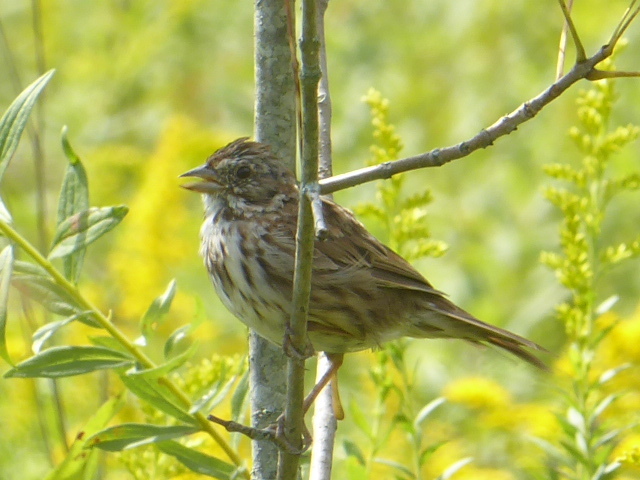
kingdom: Animalia
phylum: Chordata
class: Aves
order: Passeriformes
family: Passerellidae
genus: Melospiza
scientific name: Melospiza melodia
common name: Song sparrow
